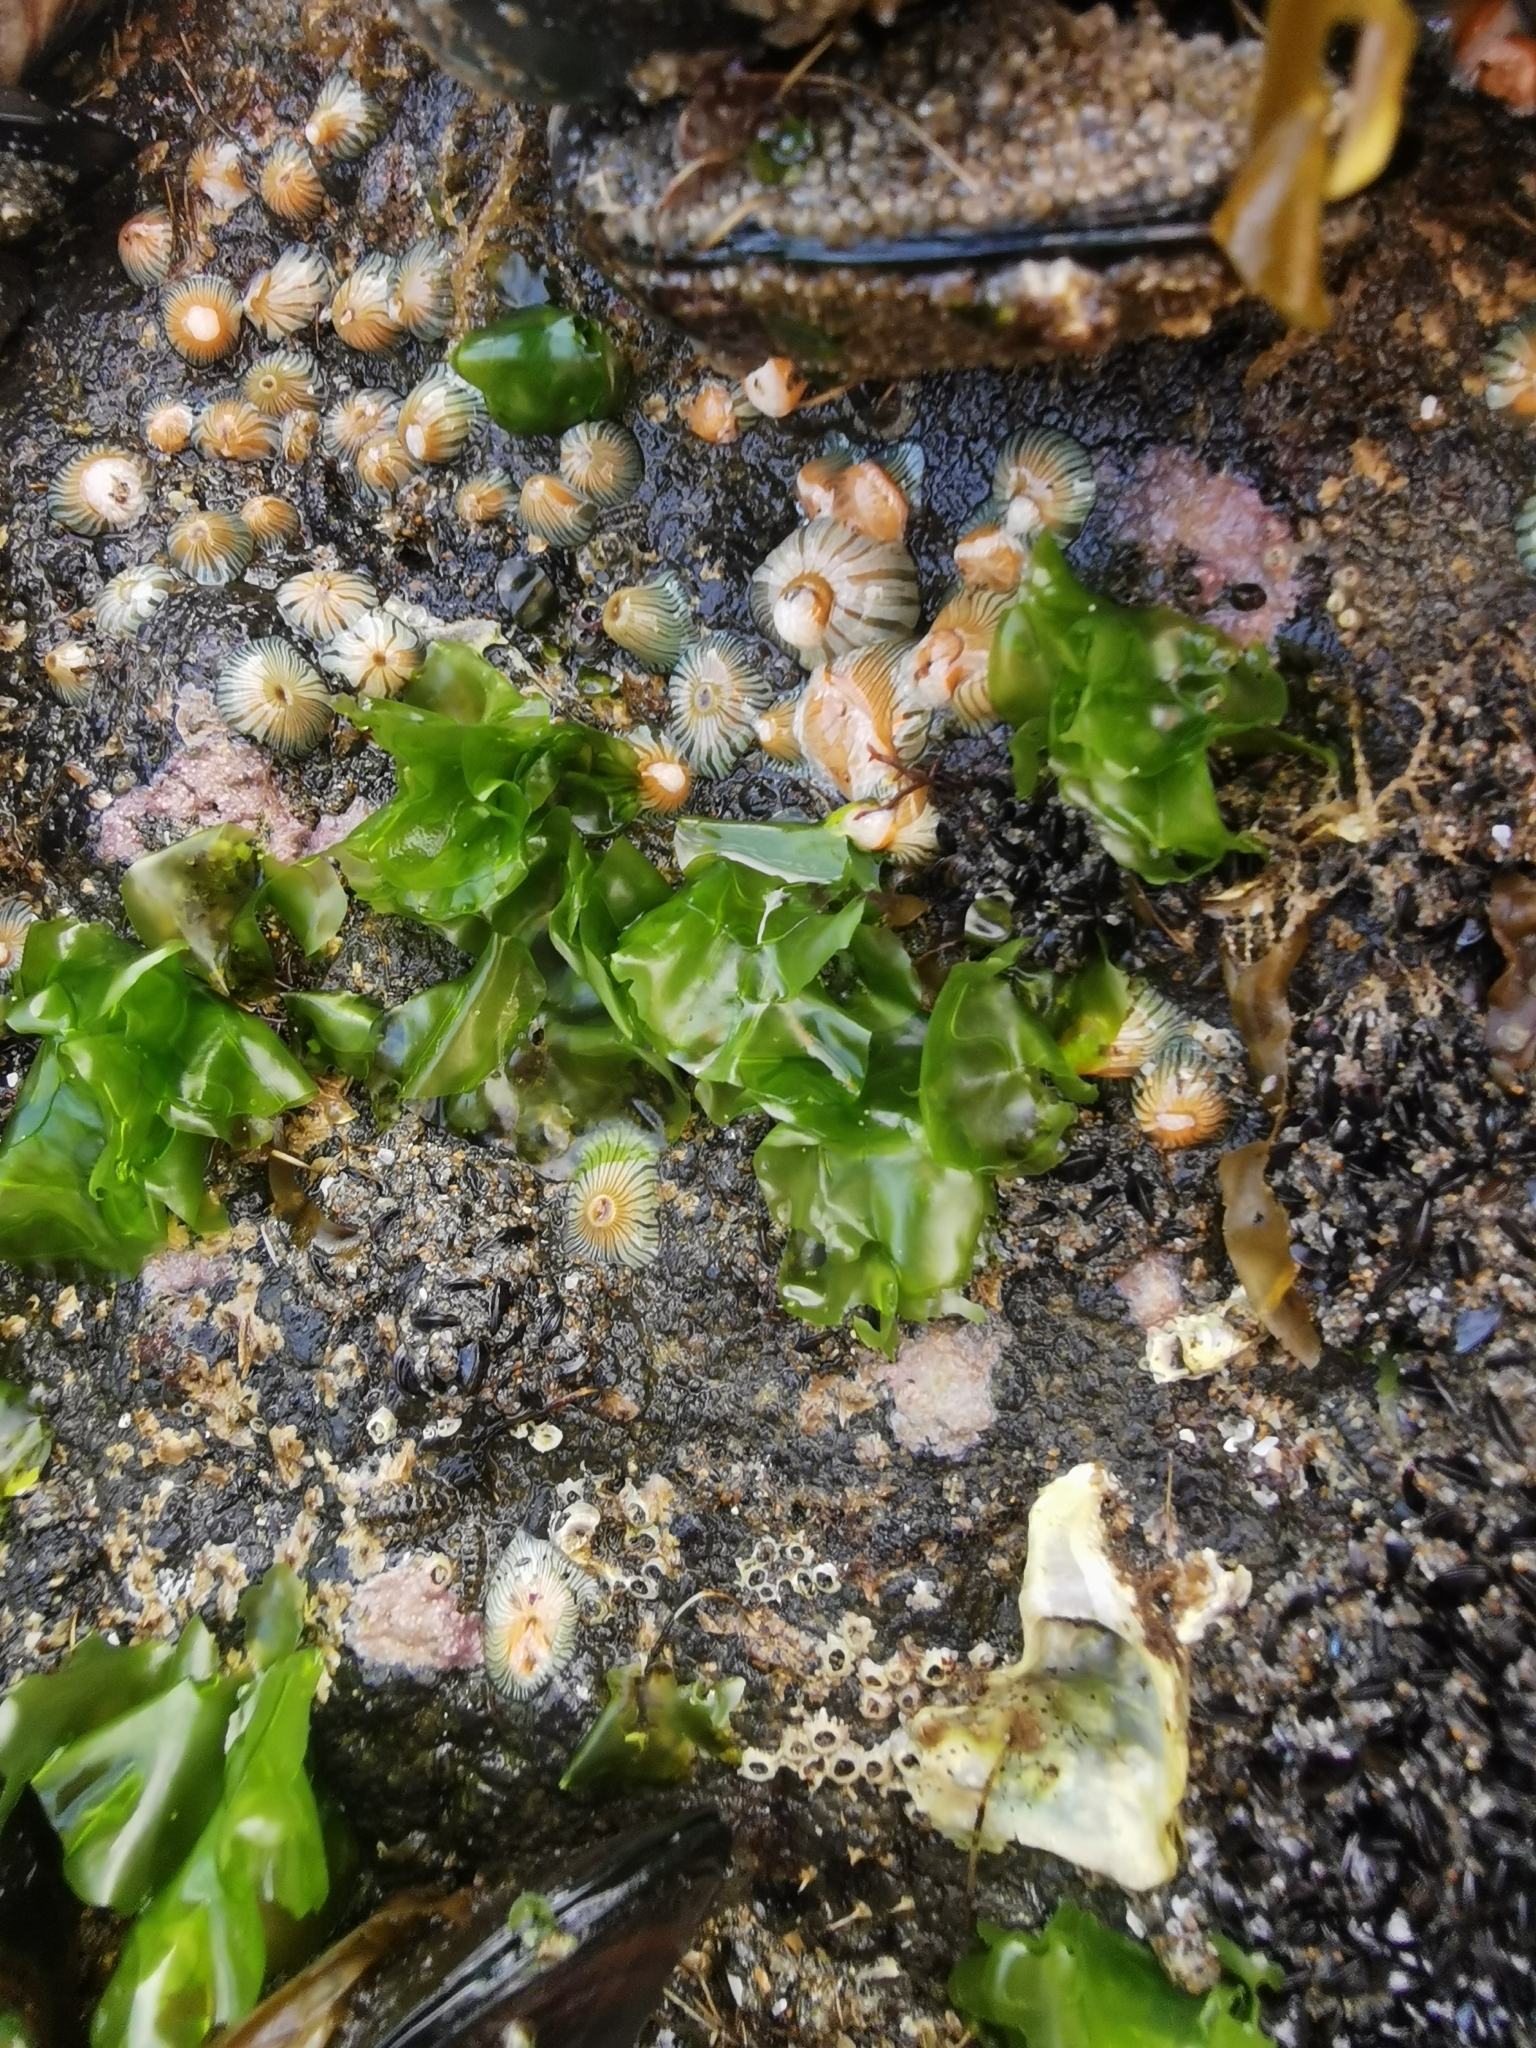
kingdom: Plantae
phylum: Chlorophyta
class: Ulvophyceae
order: Ulvales
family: Ulvaceae
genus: Ulva
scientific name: Ulva
